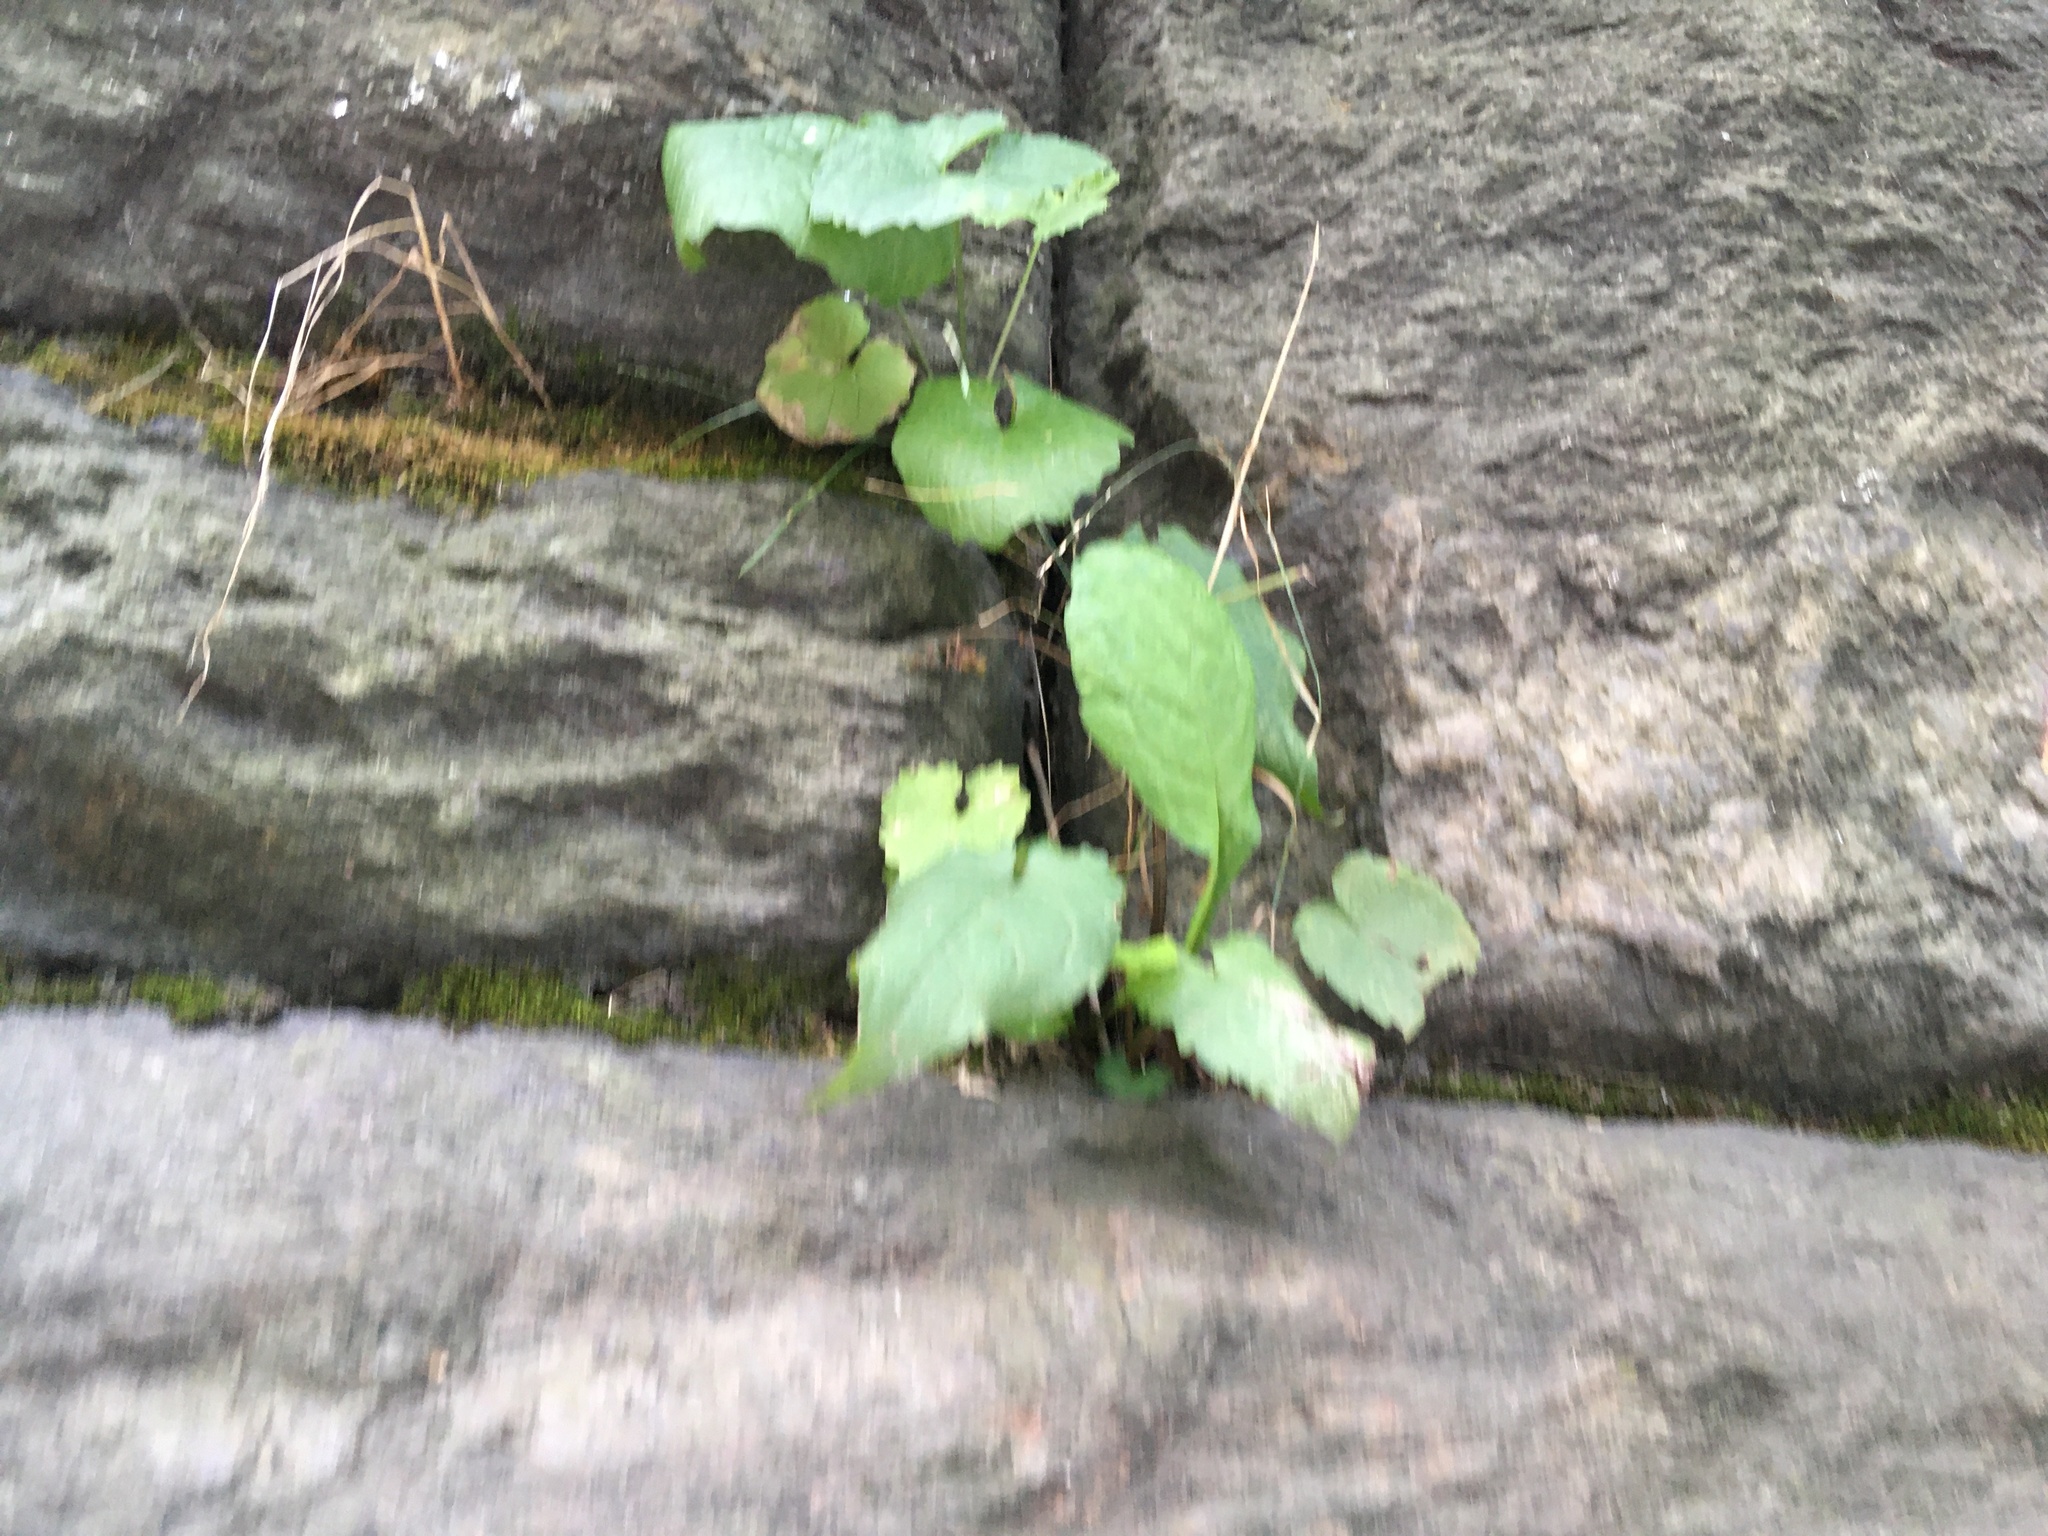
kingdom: Plantae
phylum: Tracheophyta
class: Magnoliopsida
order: Asterales
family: Asteraceae
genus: Eurybia
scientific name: Eurybia divaricata
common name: White wood aster
